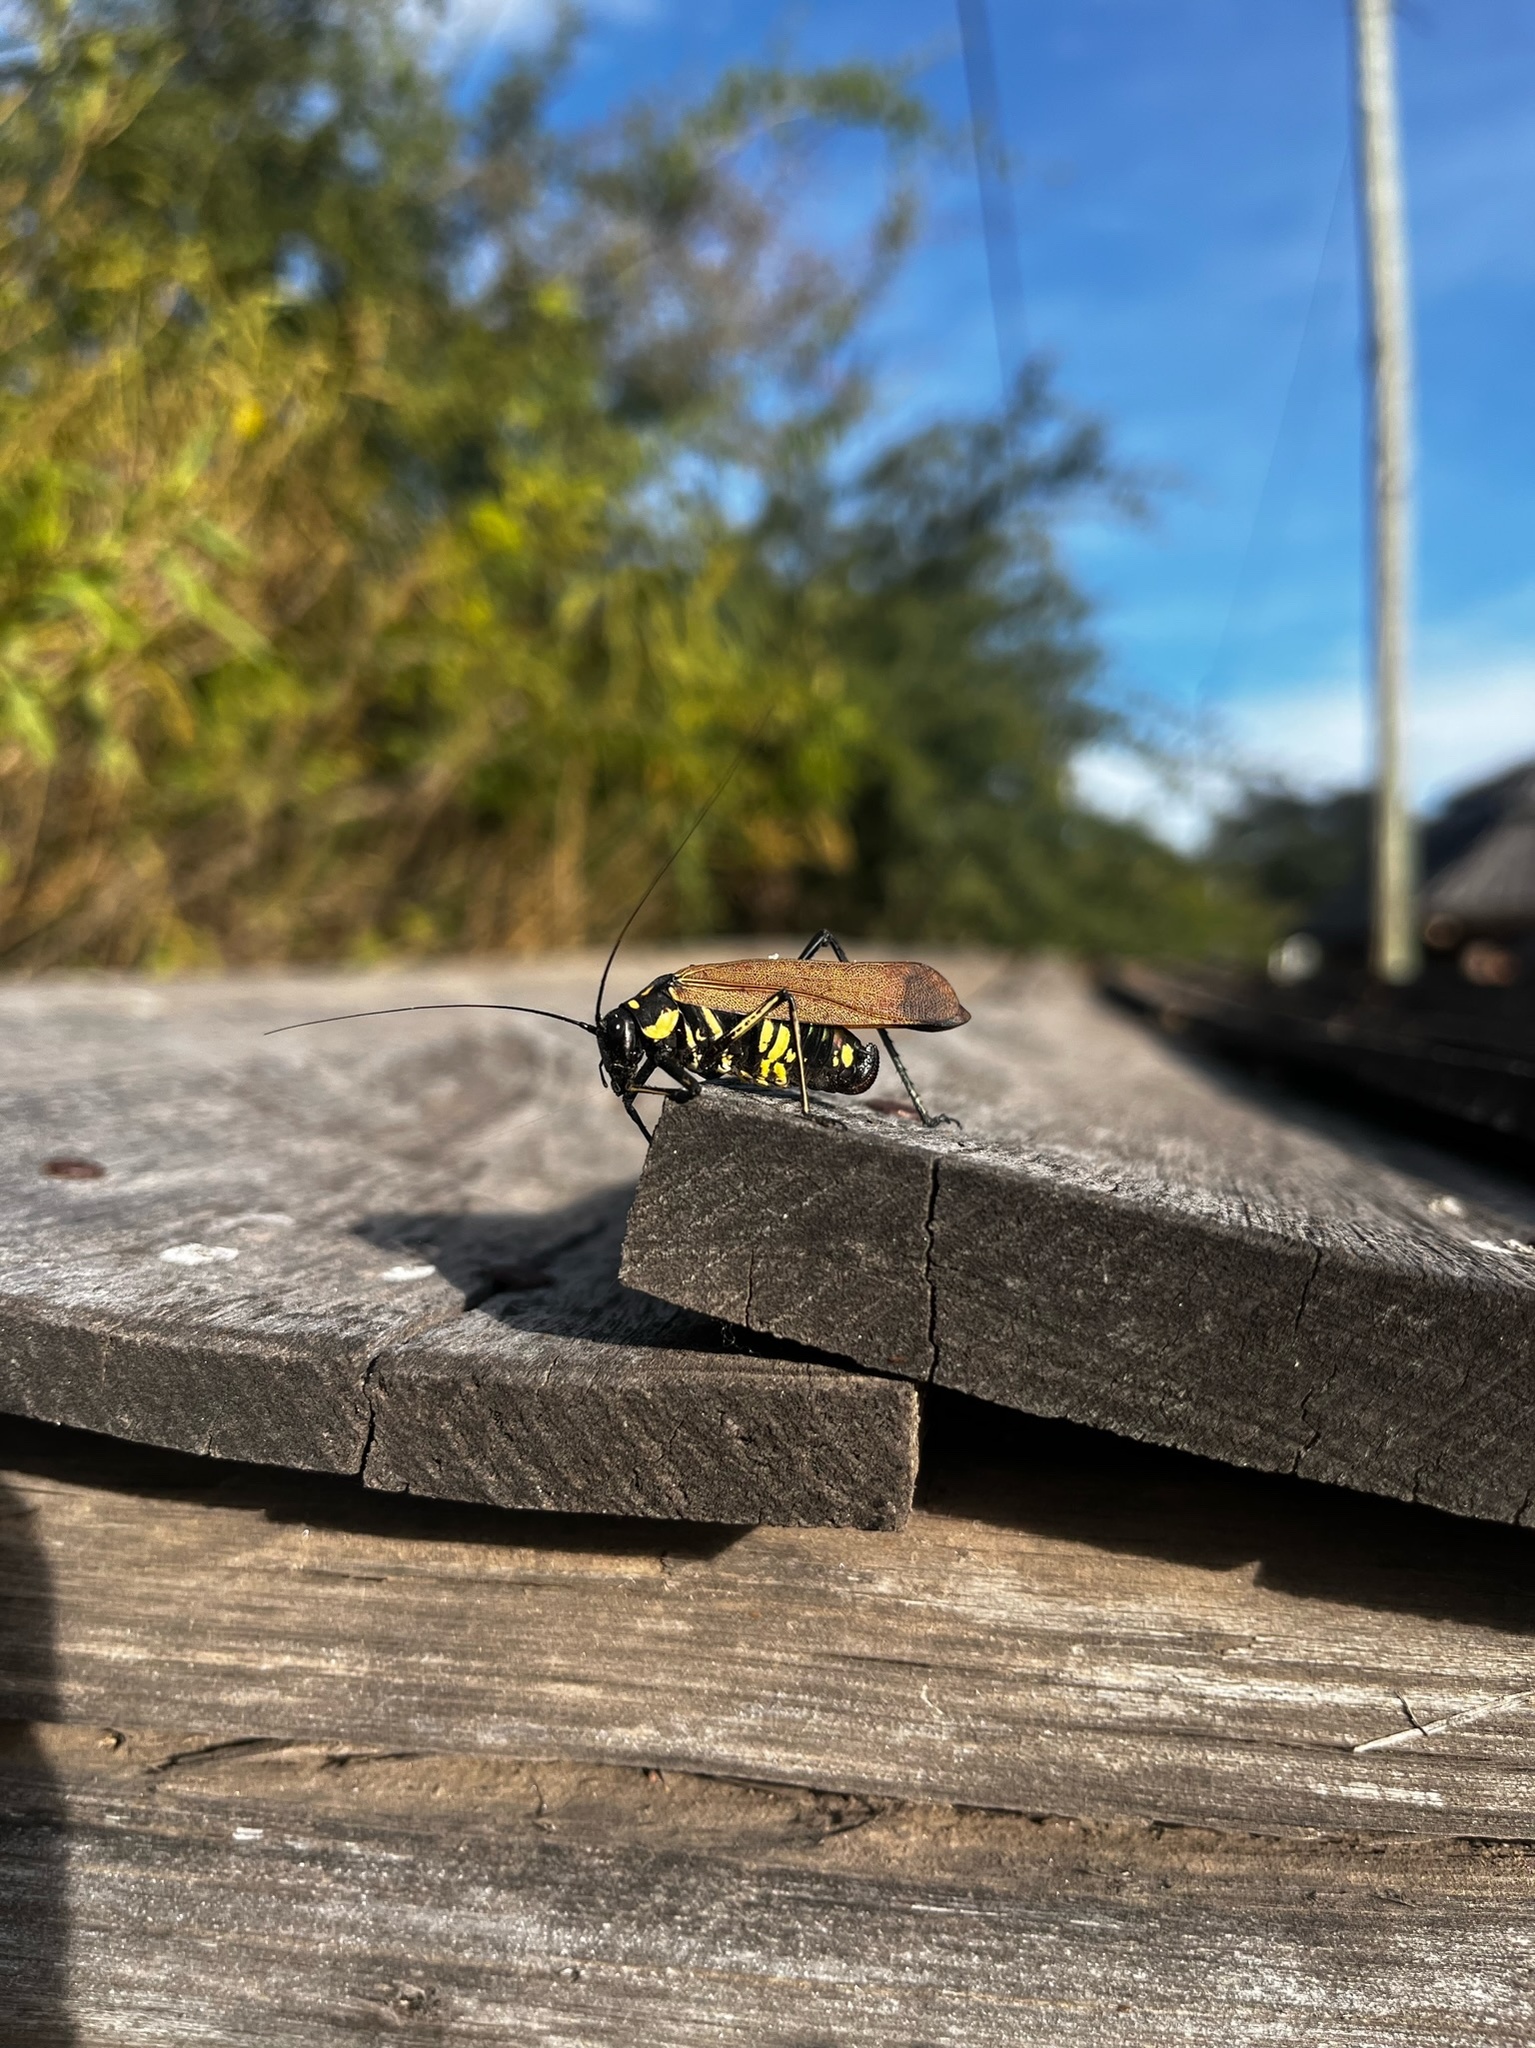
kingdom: Animalia
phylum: Arthropoda
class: Insecta
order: Orthoptera
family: Tettigoniidae
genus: Scaphura
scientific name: Scaphura elegans
